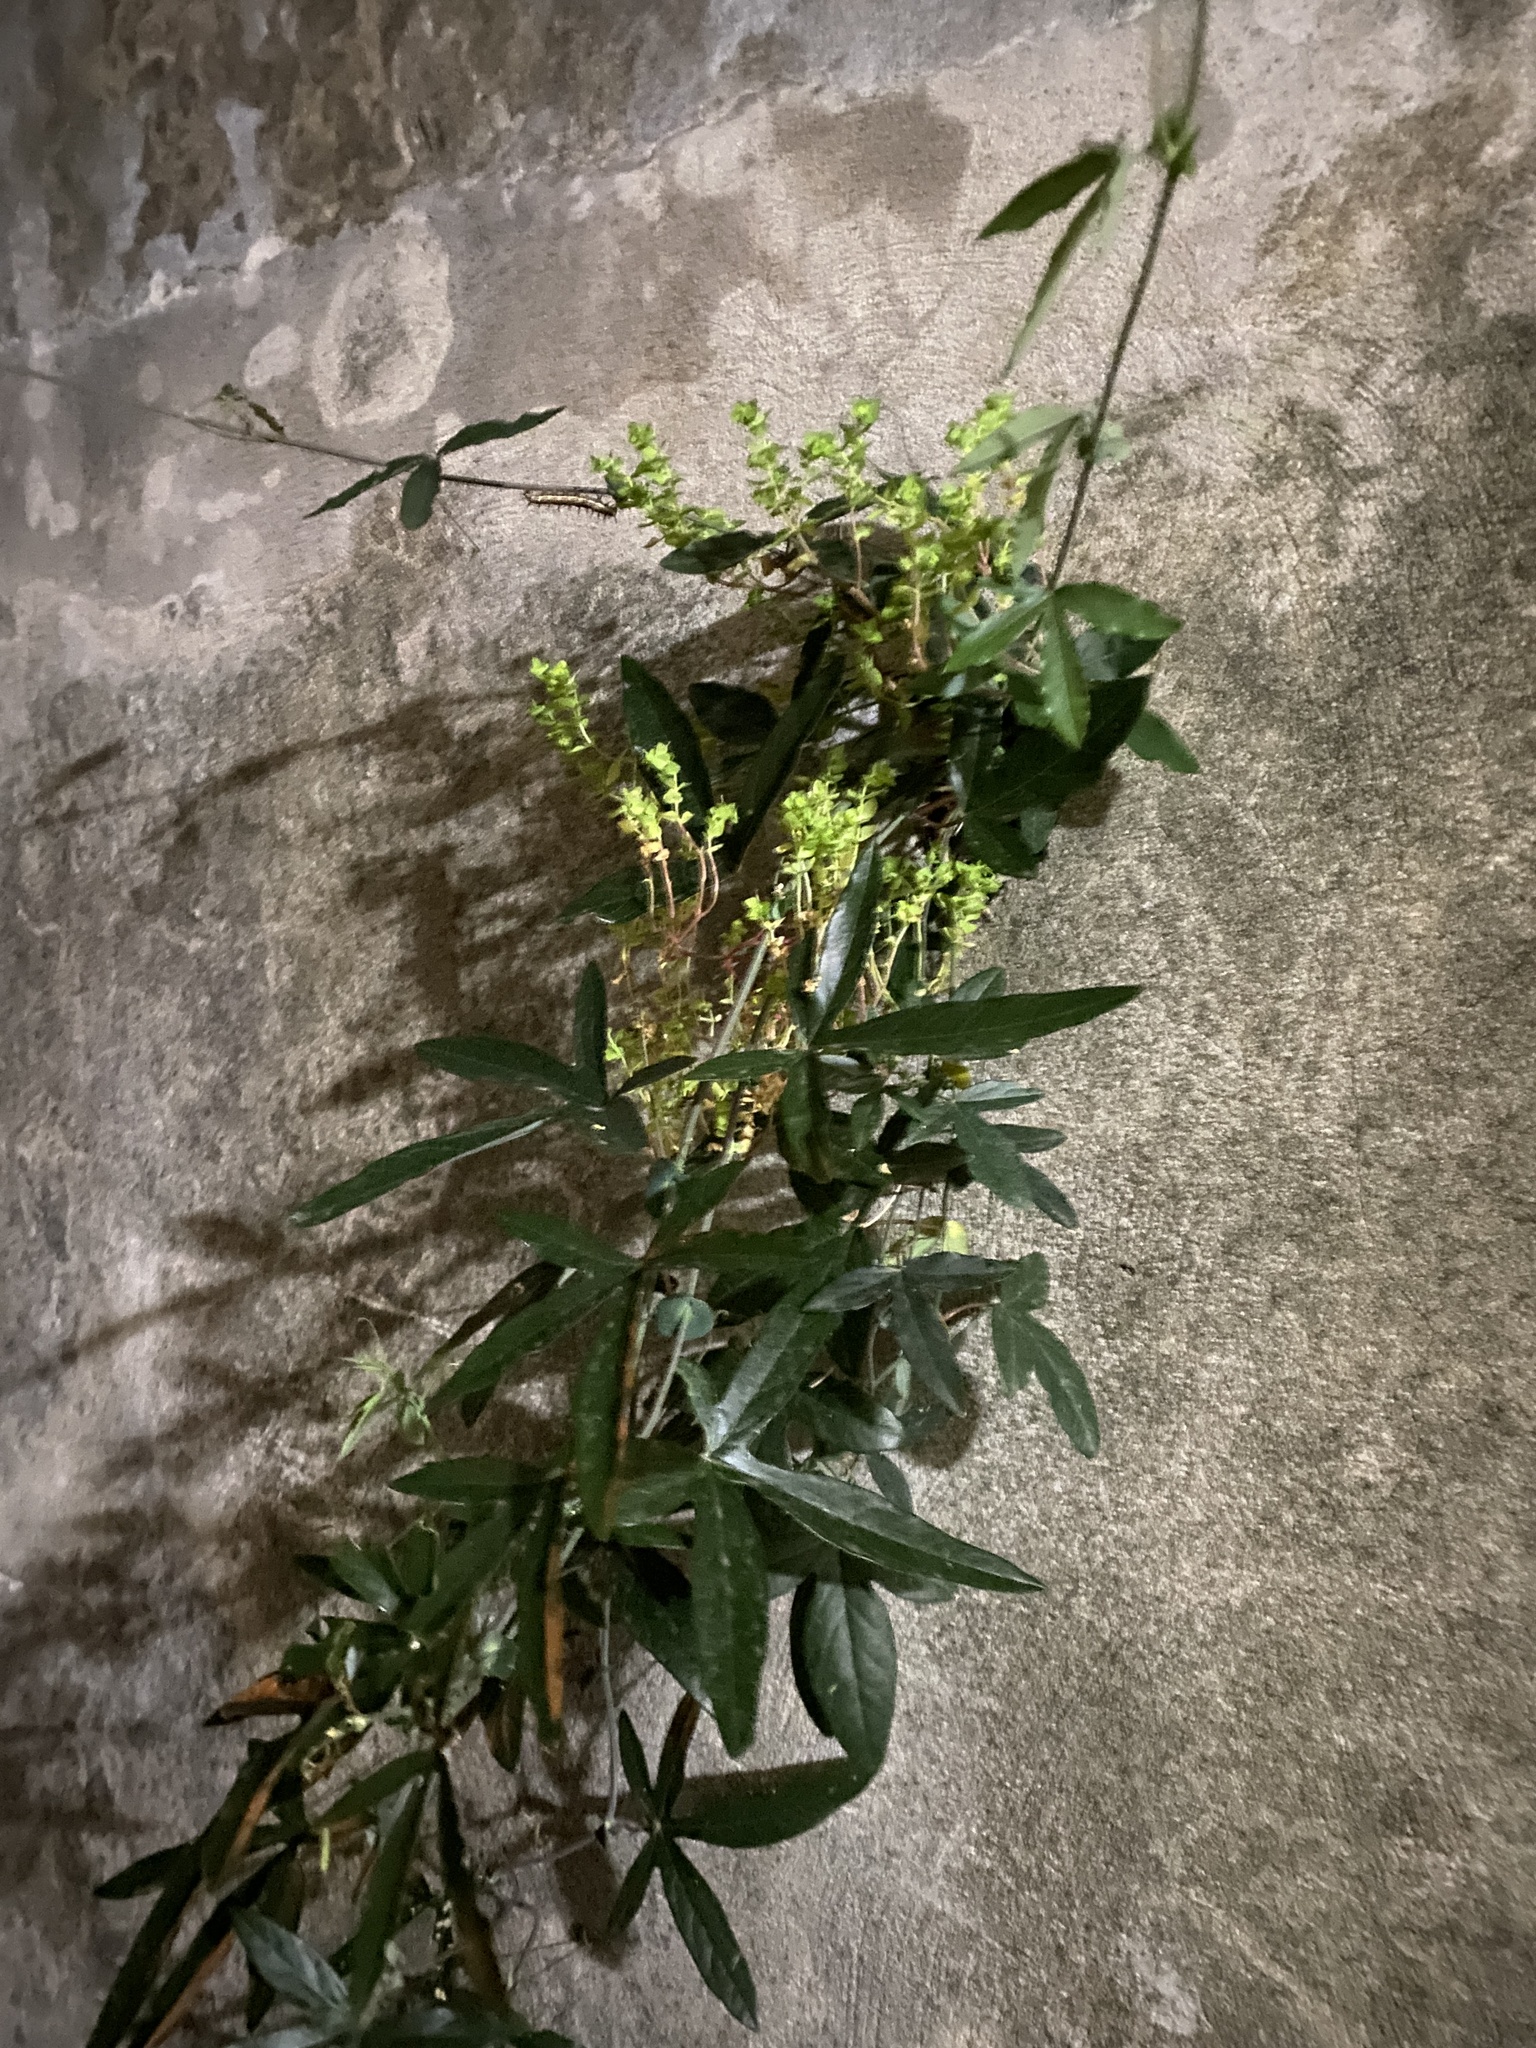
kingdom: Plantae
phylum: Tracheophyta
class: Magnoliopsida
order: Malpighiales
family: Passifloraceae
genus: Passiflora
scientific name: Passiflora caerulea
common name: Blue passionflower
